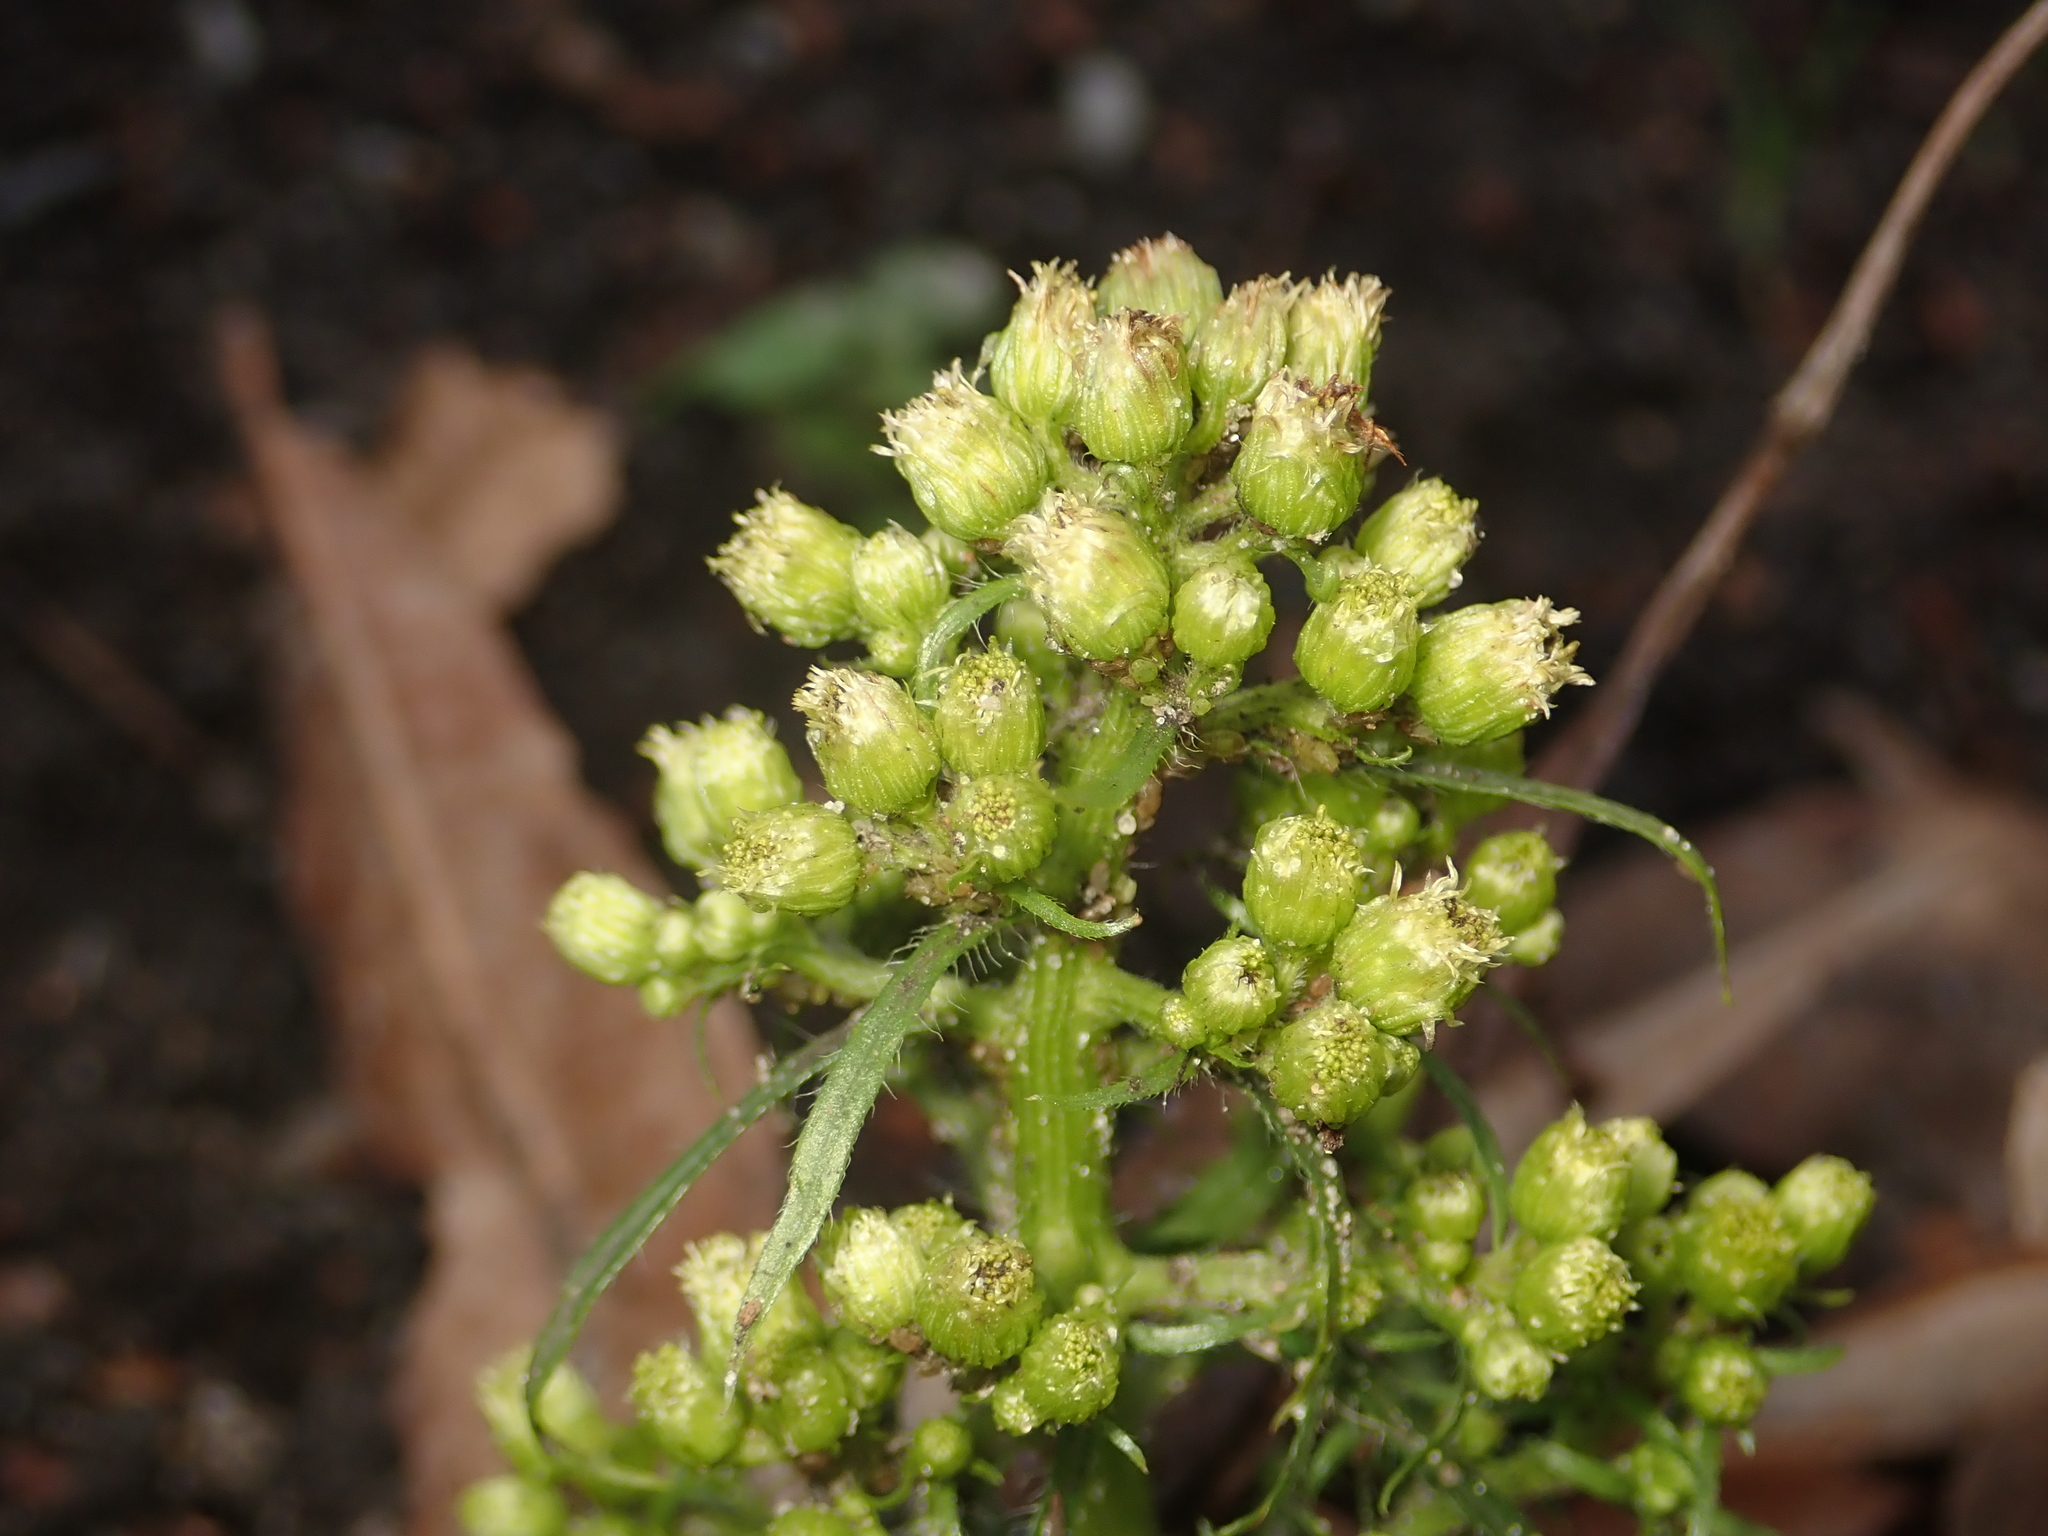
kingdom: Plantae
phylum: Tracheophyta
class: Magnoliopsida
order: Asterales
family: Asteraceae
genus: Erigeron
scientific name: Erigeron canadensis
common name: Canadian fleabane
